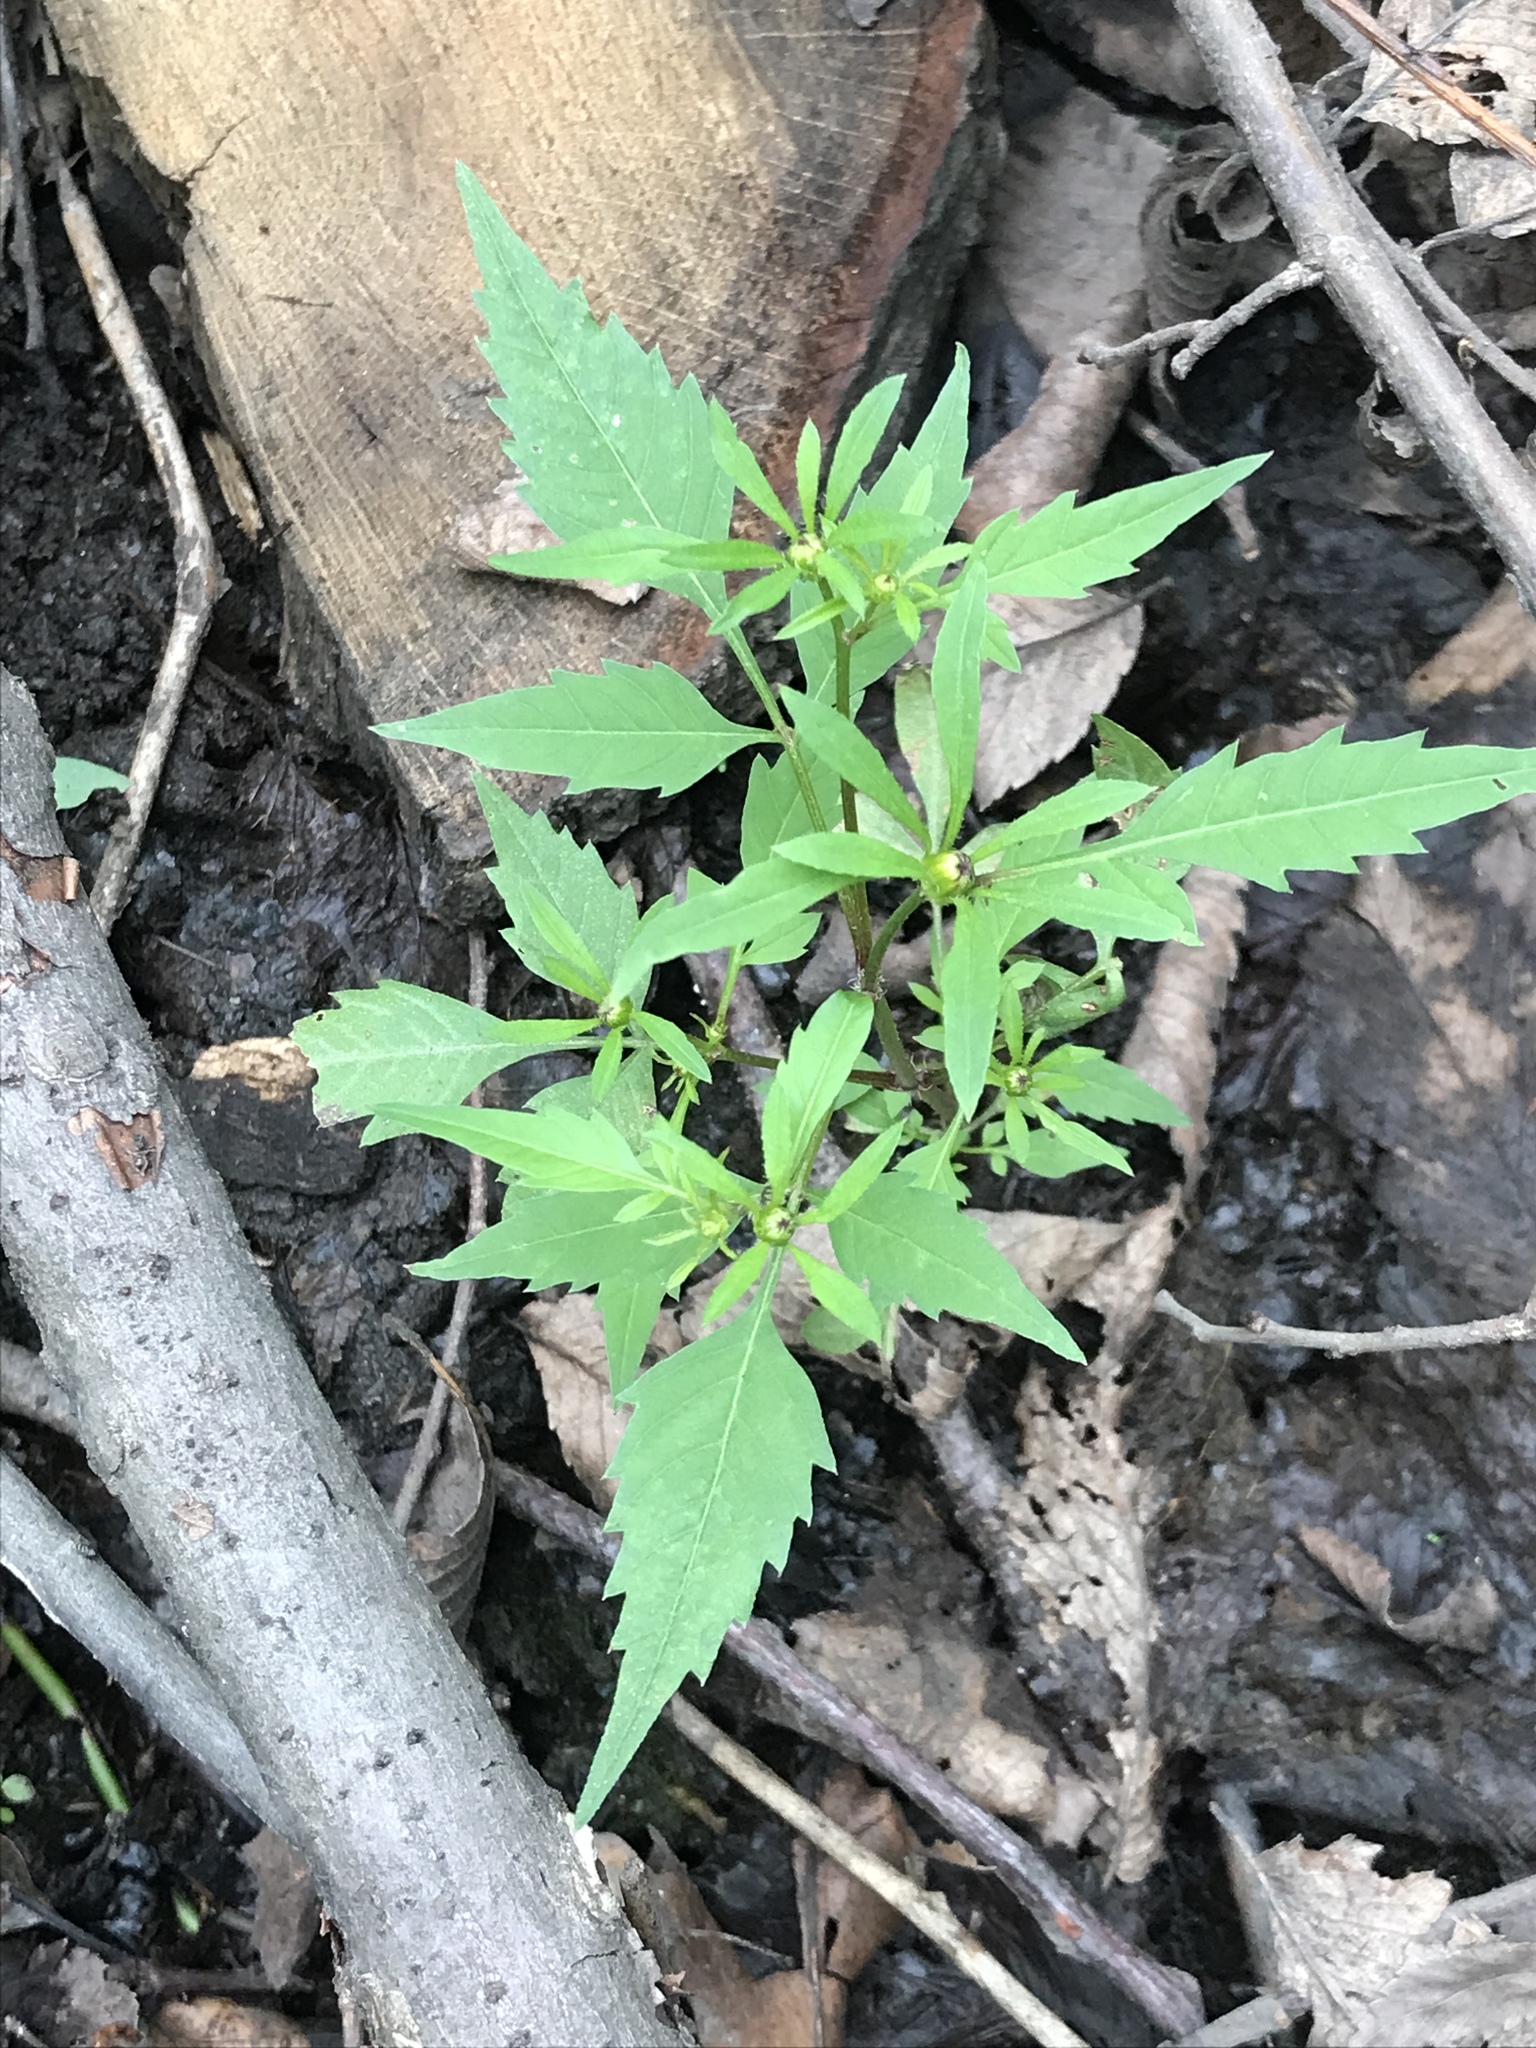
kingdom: Plantae
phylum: Tracheophyta
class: Magnoliopsida
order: Asterales
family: Asteraceae
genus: Bidens
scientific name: Bidens frondosa
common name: Beggarticks
